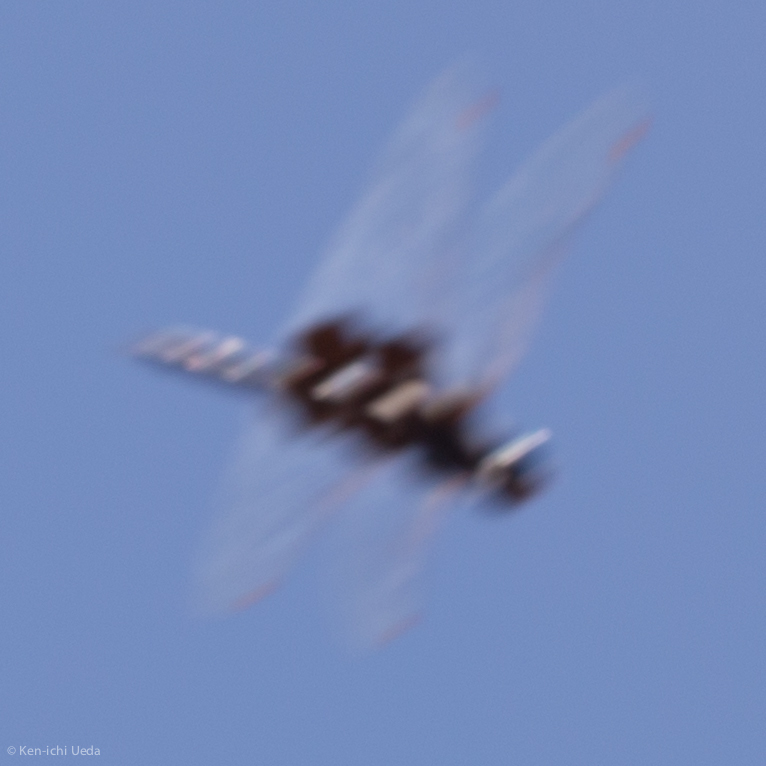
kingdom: Animalia
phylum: Arthropoda
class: Insecta
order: Odonata
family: Libellulidae
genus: Tramea
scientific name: Tramea lacerata
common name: Black saddlebags
